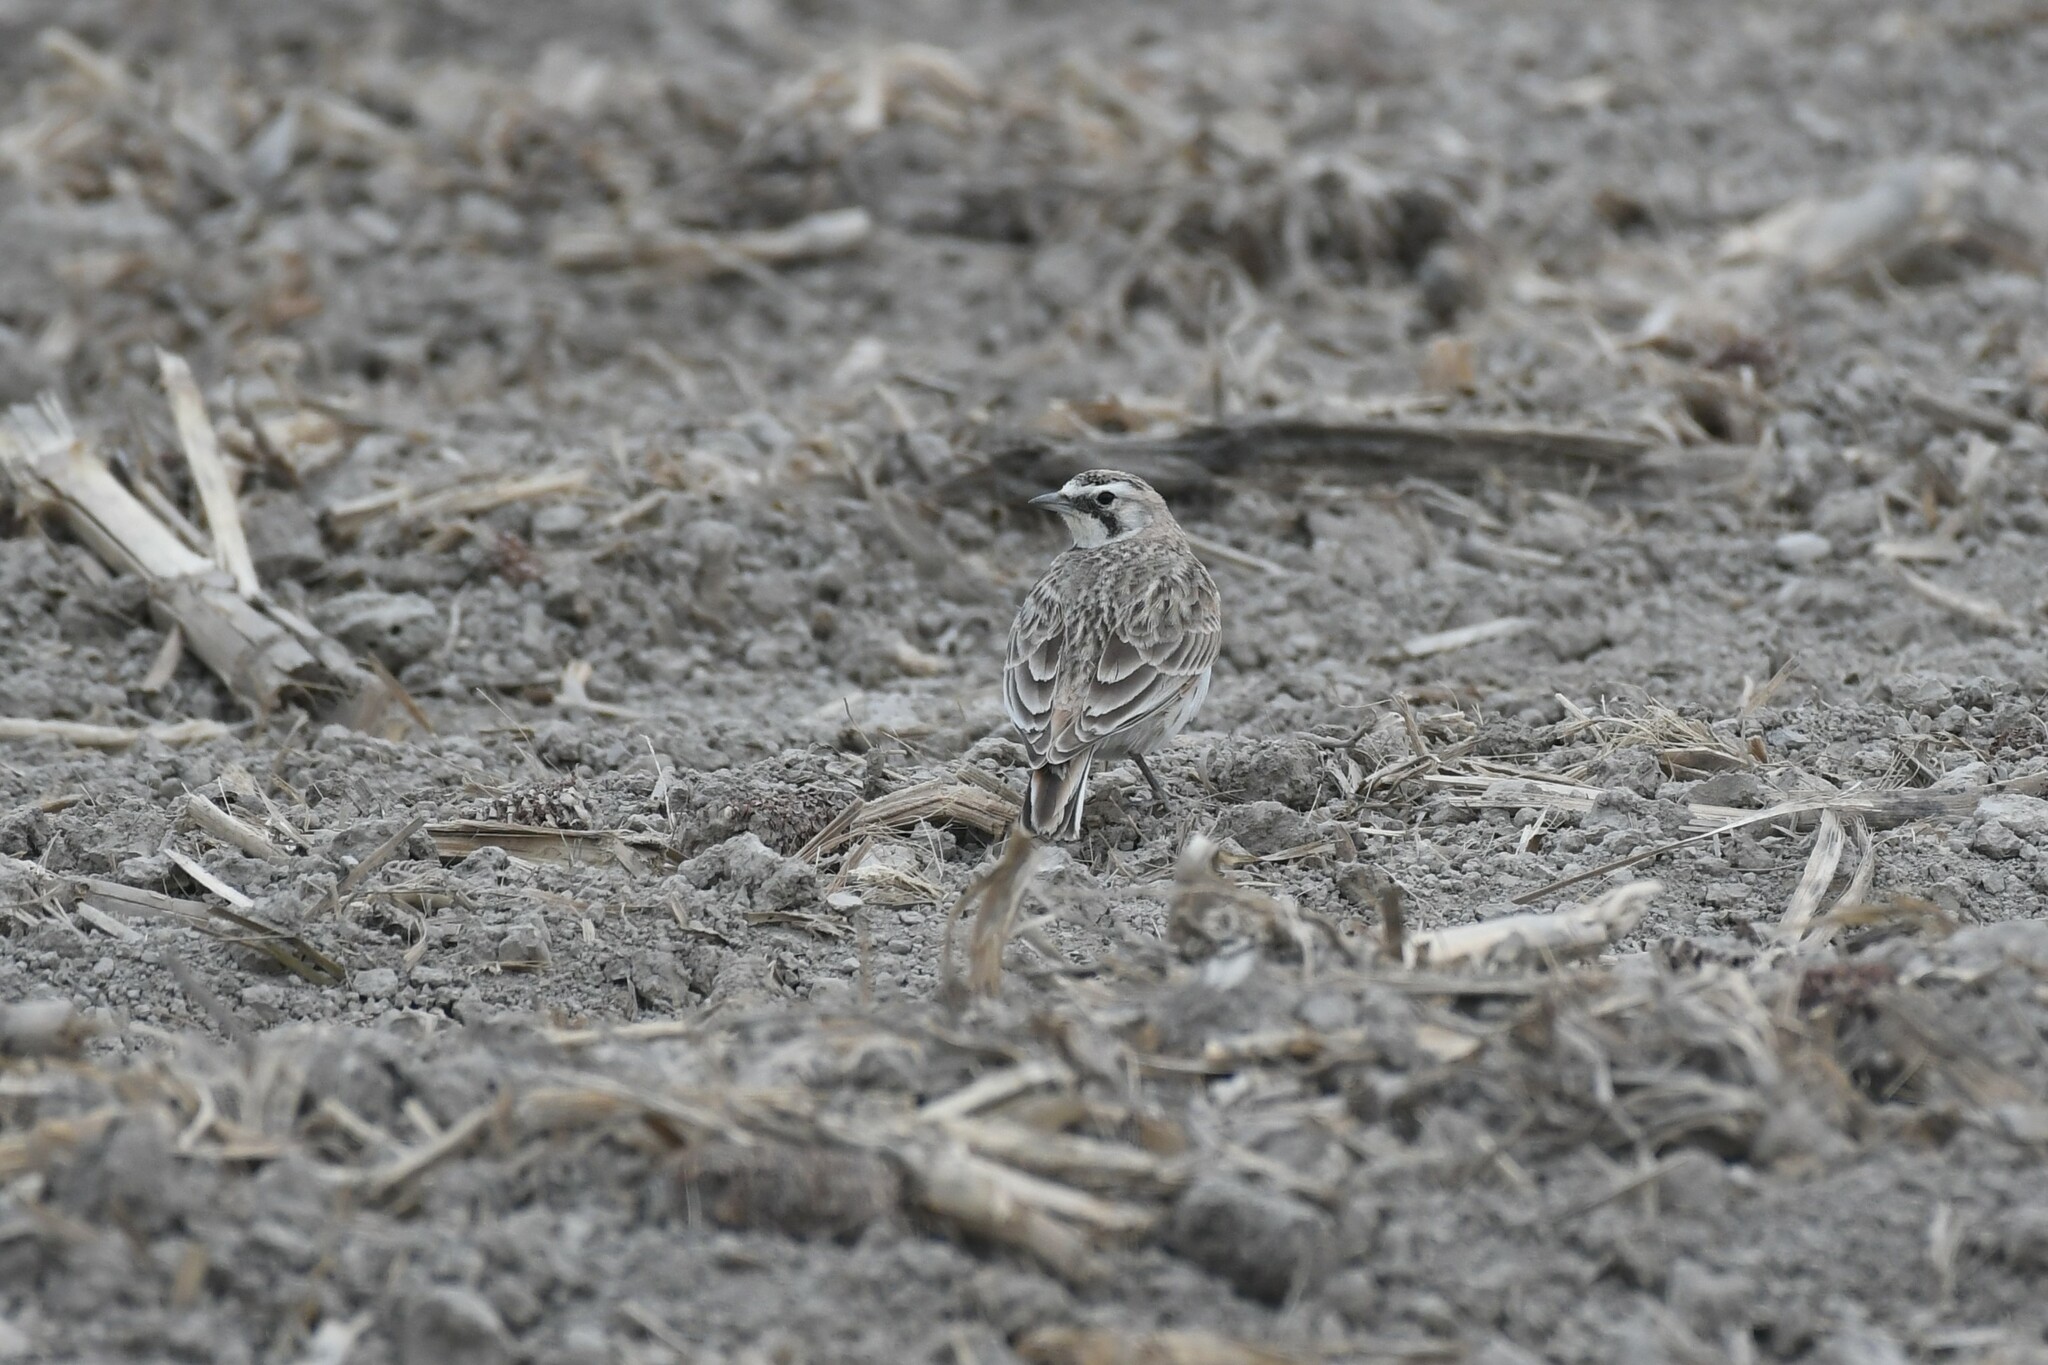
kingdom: Animalia
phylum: Chordata
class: Aves
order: Passeriformes
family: Alaudidae
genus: Eremophila
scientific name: Eremophila alpestris
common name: Horned lark
